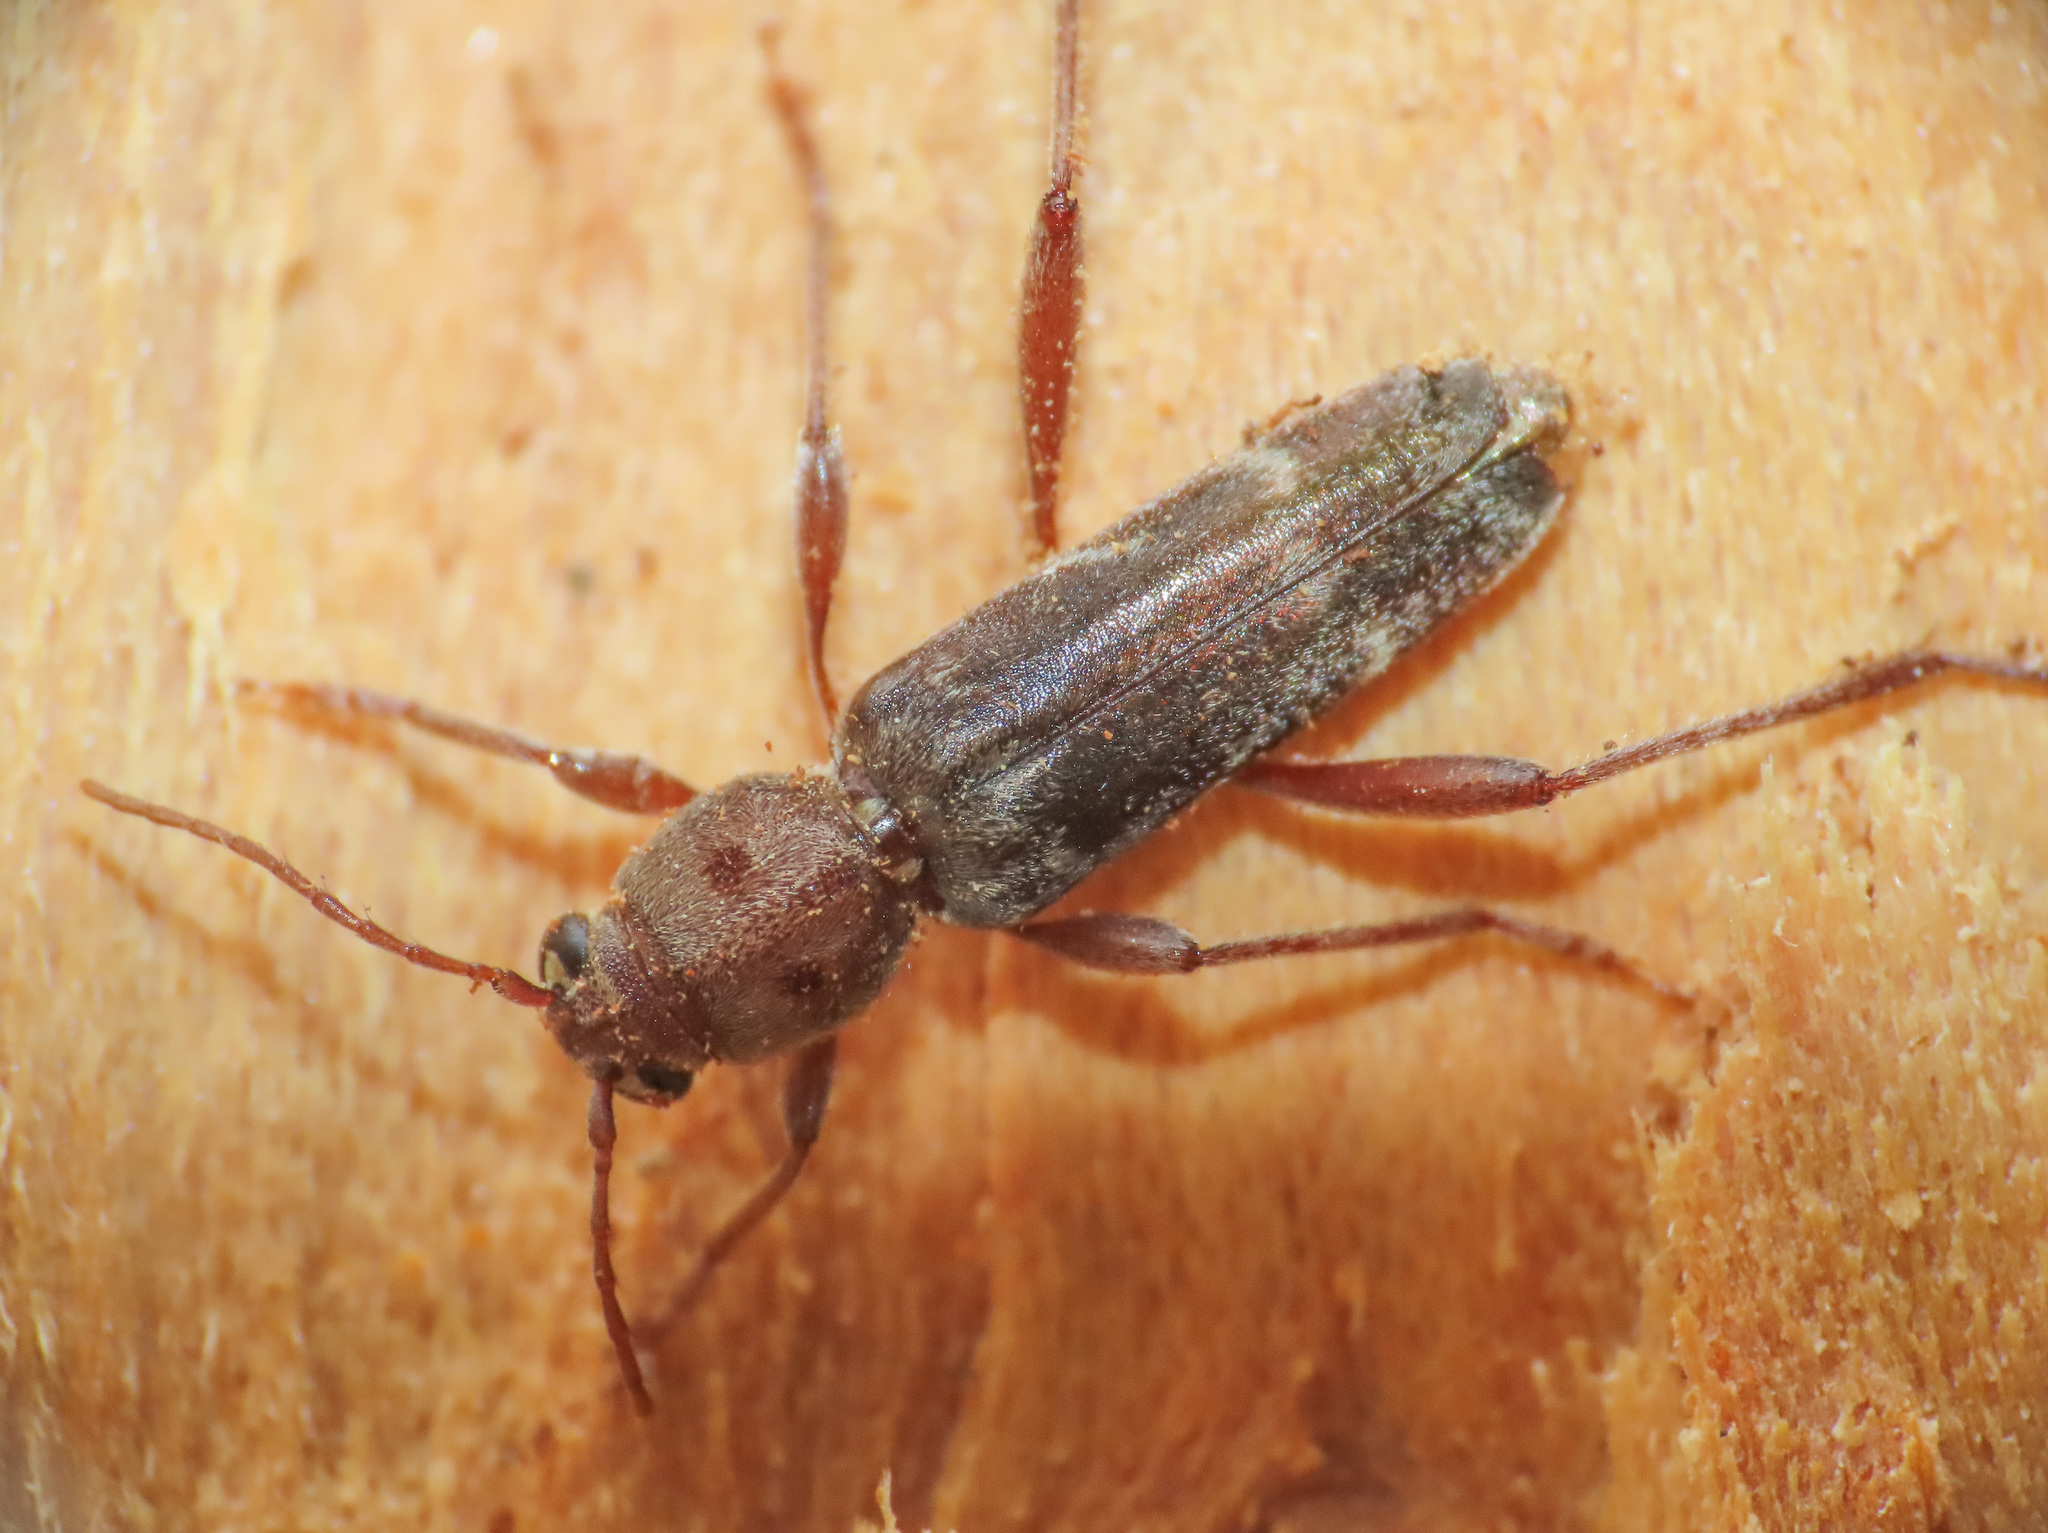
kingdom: Animalia
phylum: Arthropoda
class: Insecta
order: Coleoptera
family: Cerambycidae
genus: Xylotrechus
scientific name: Xylotrechus smei
